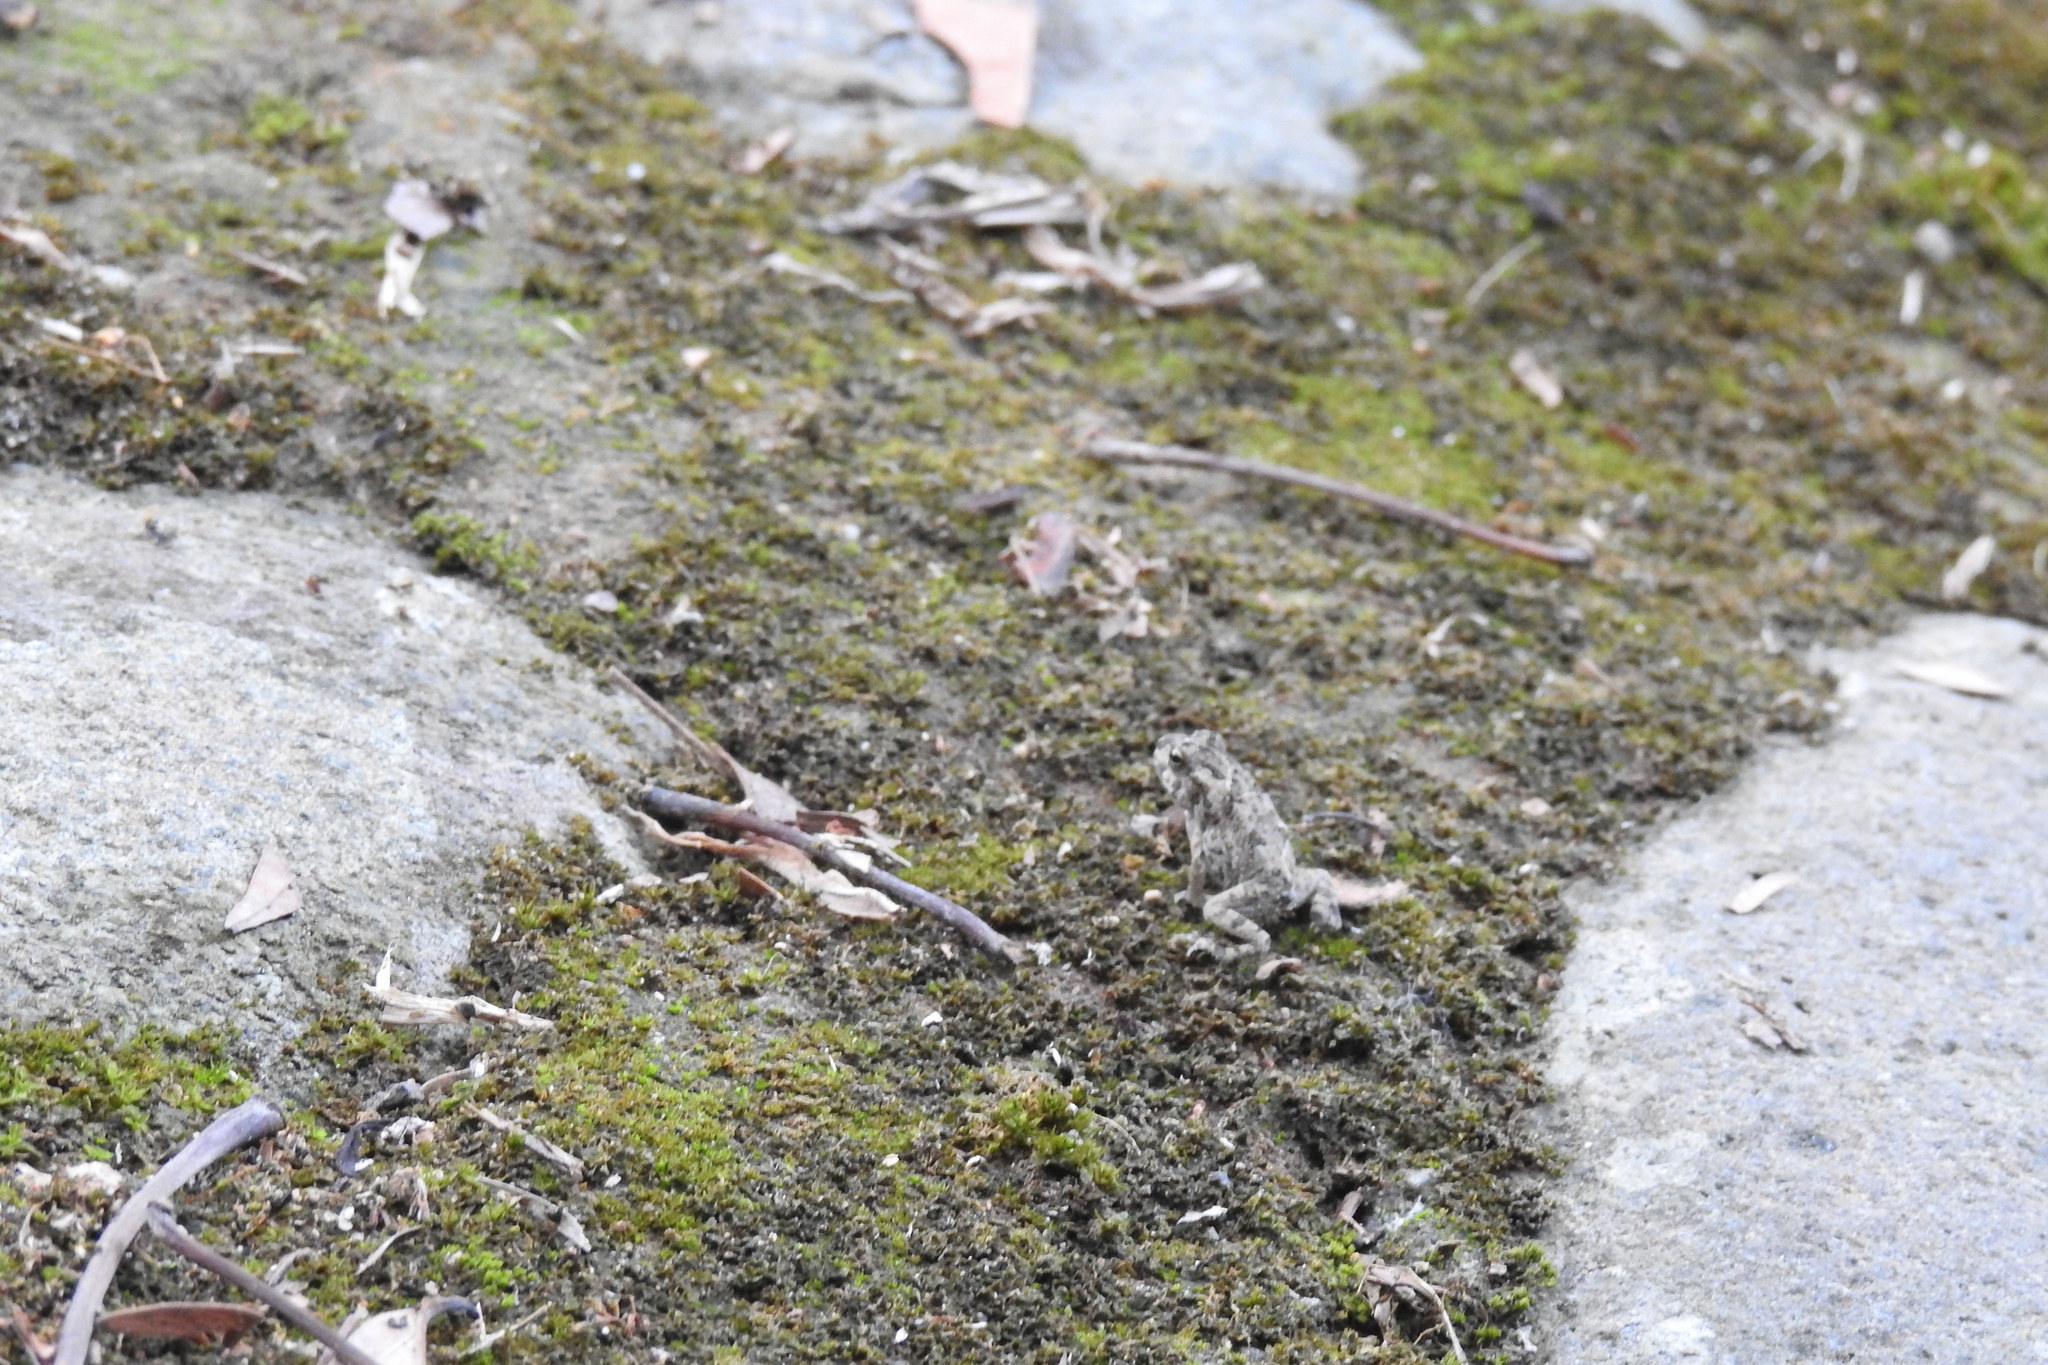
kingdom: Animalia
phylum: Chordata
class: Amphibia
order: Anura
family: Bufonidae
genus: Rhinella
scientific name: Rhinella marina
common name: Cane toad
